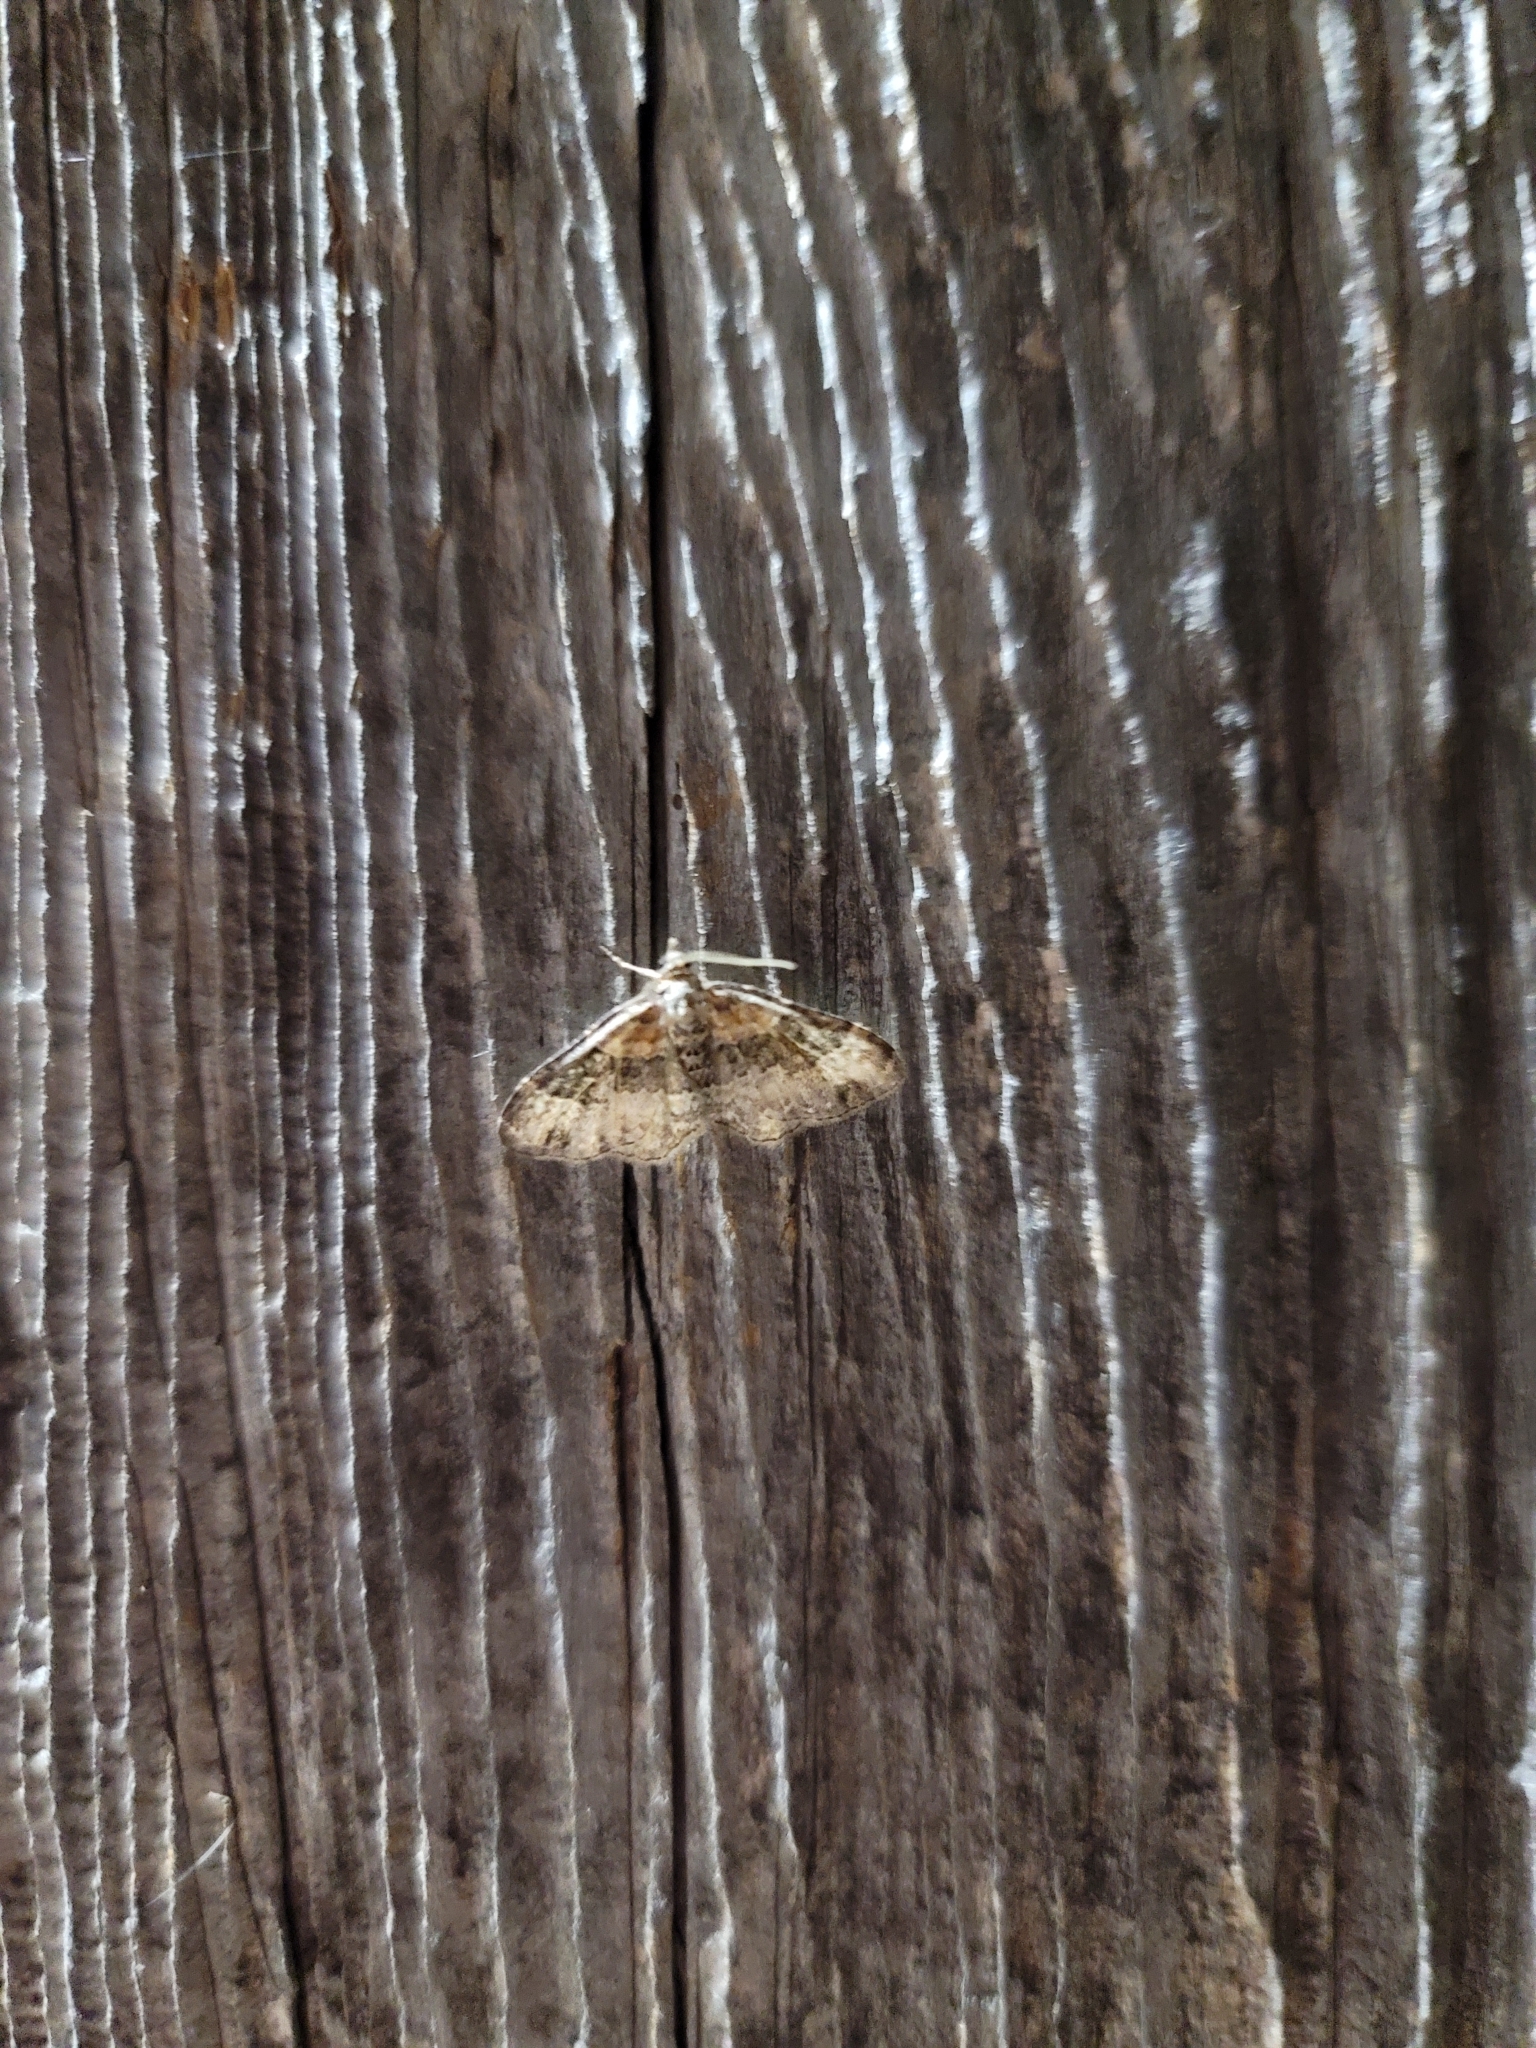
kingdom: Animalia
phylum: Arthropoda
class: Insecta
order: Lepidoptera
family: Geometridae
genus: Xanthorhoe
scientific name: Xanthorhoe ferrugata
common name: Dark-barred twin-spot carpet
